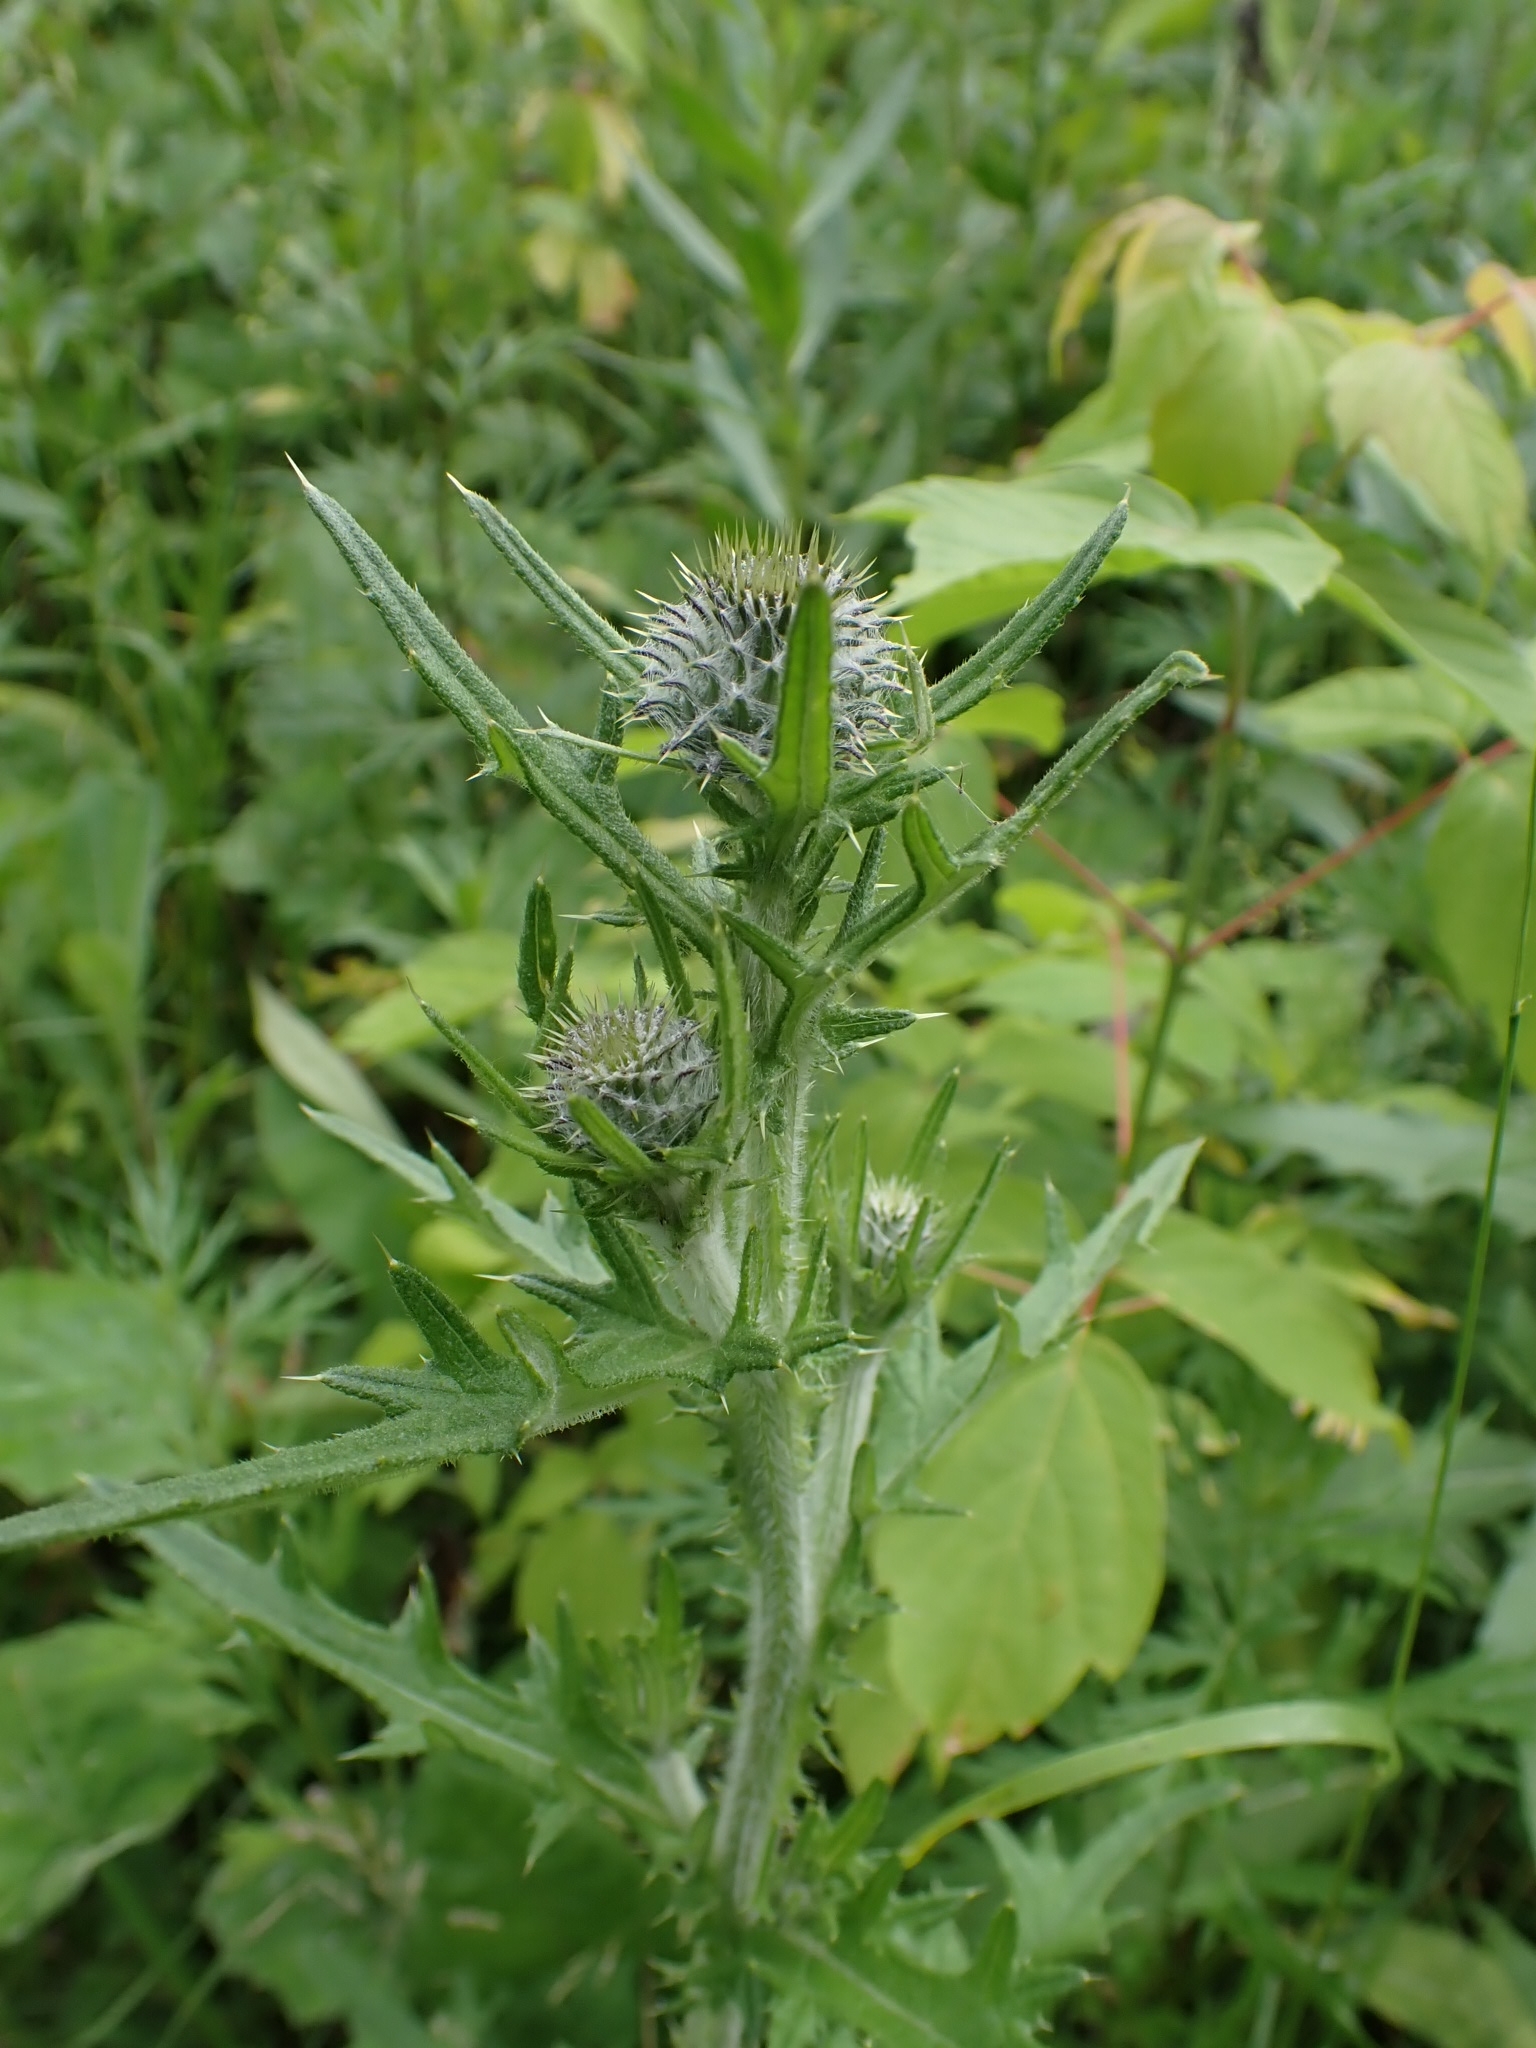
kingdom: Plantae
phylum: Tracheophyta
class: Magnoliopsida
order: Asterales
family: Asteraceae
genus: Cirsium
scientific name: Cirsium vulgare
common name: Bull thistle
